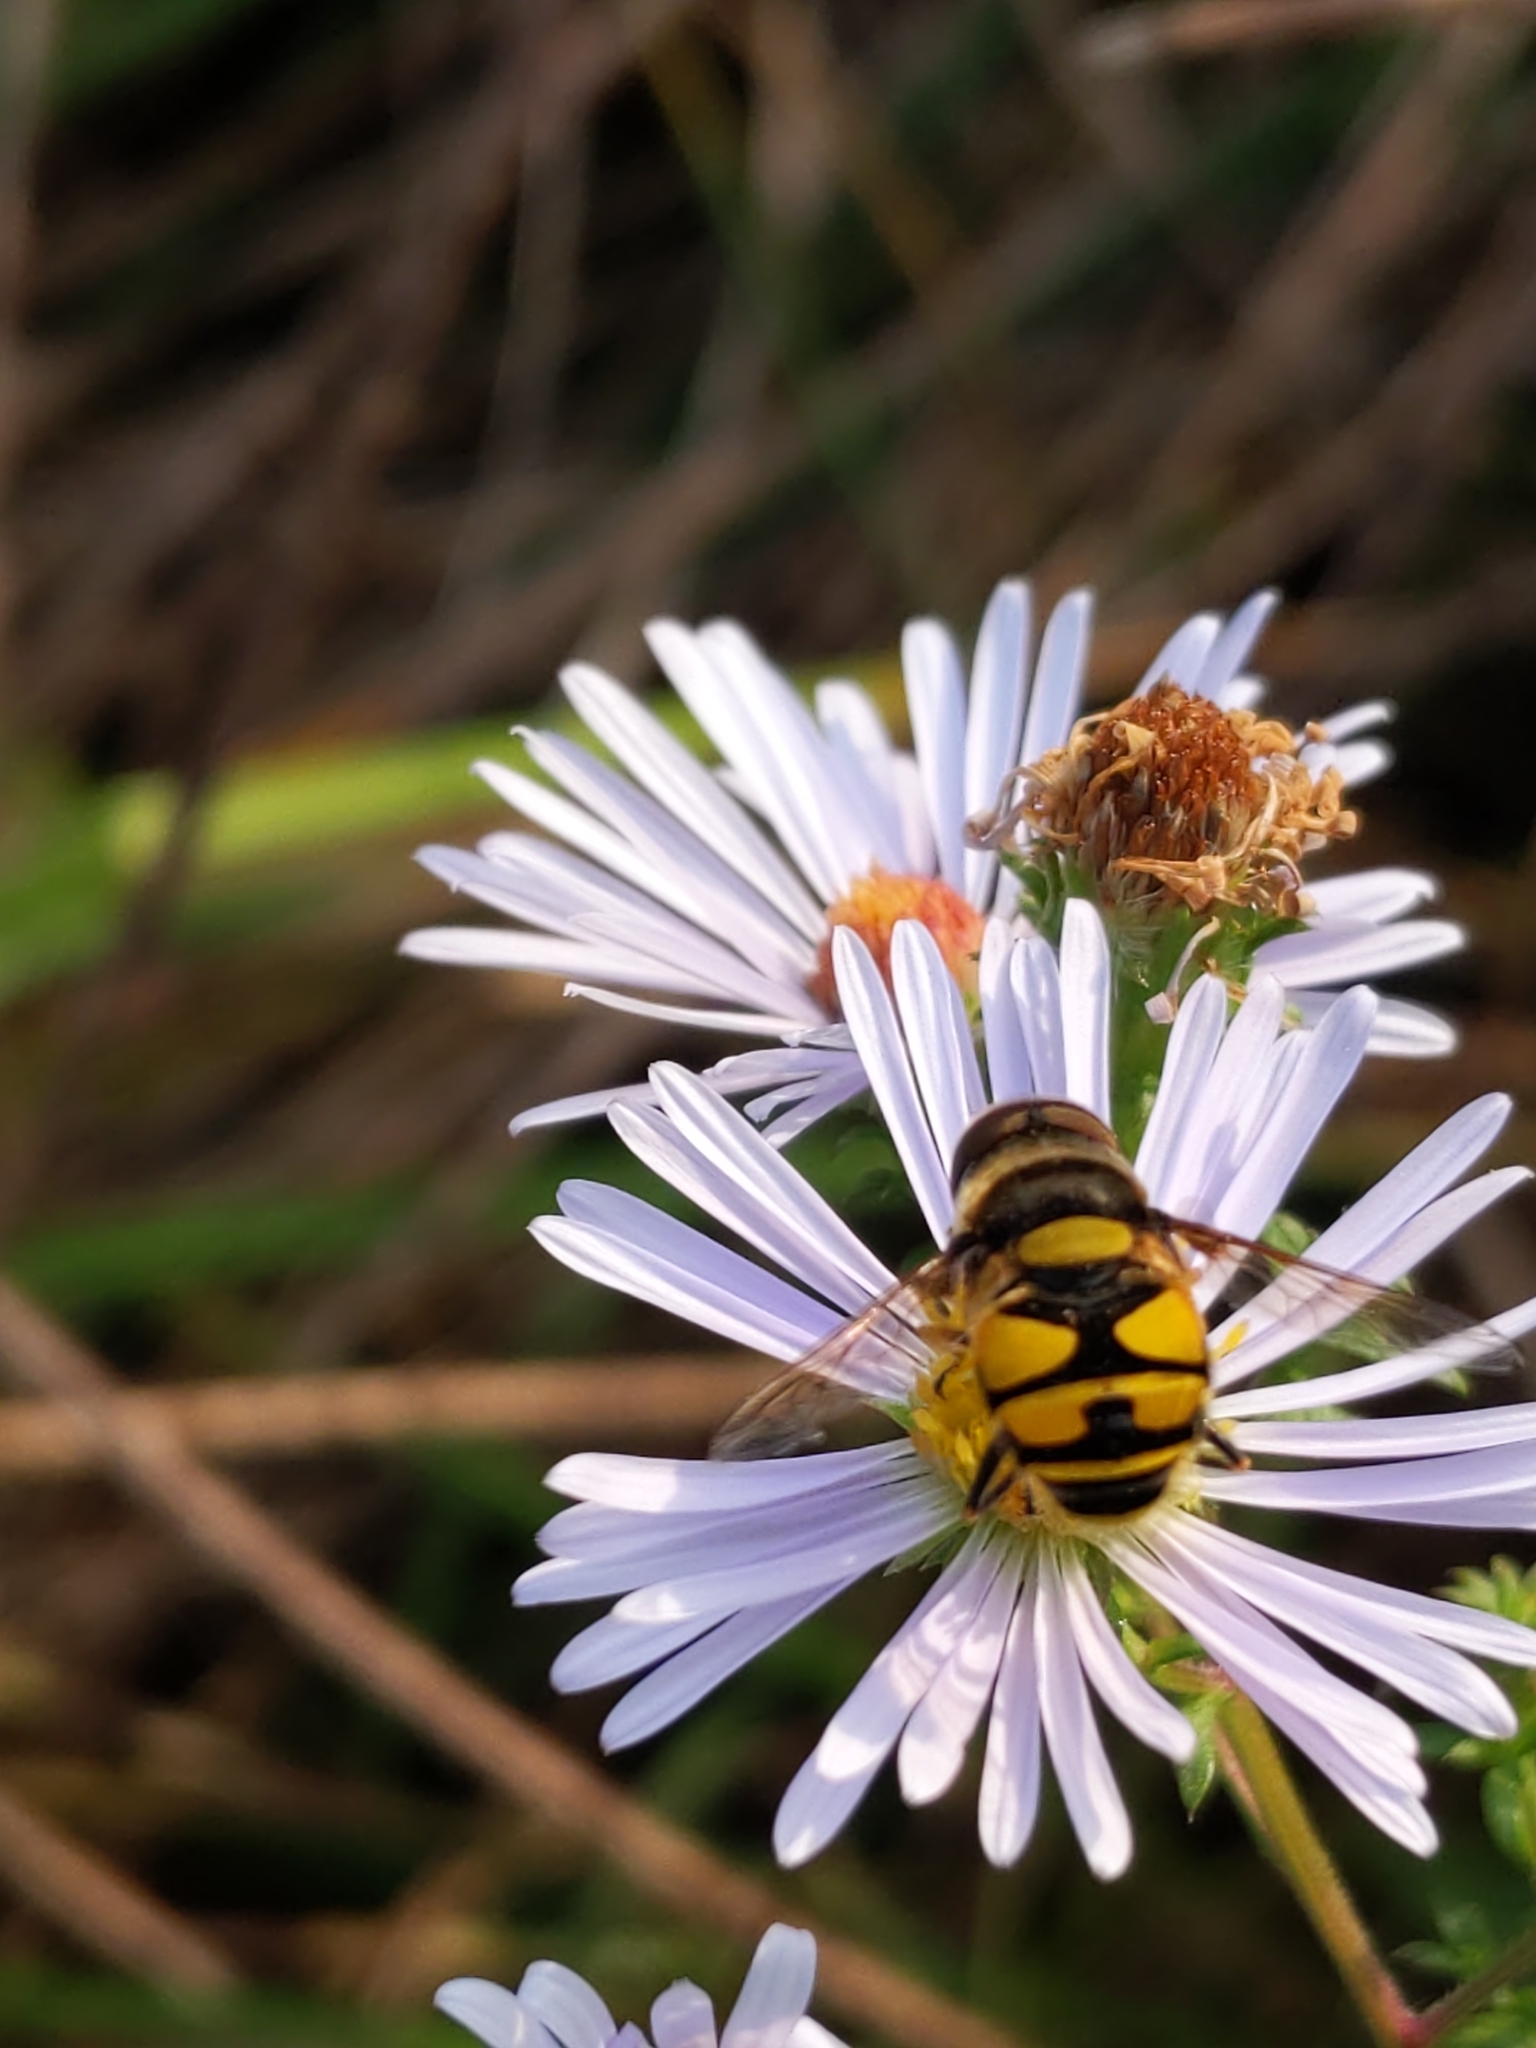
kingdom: Animalia
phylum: Arthropoda
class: Insecta
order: Diptera
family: Syrphidae
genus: Eristalis
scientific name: Eristalis transversa
